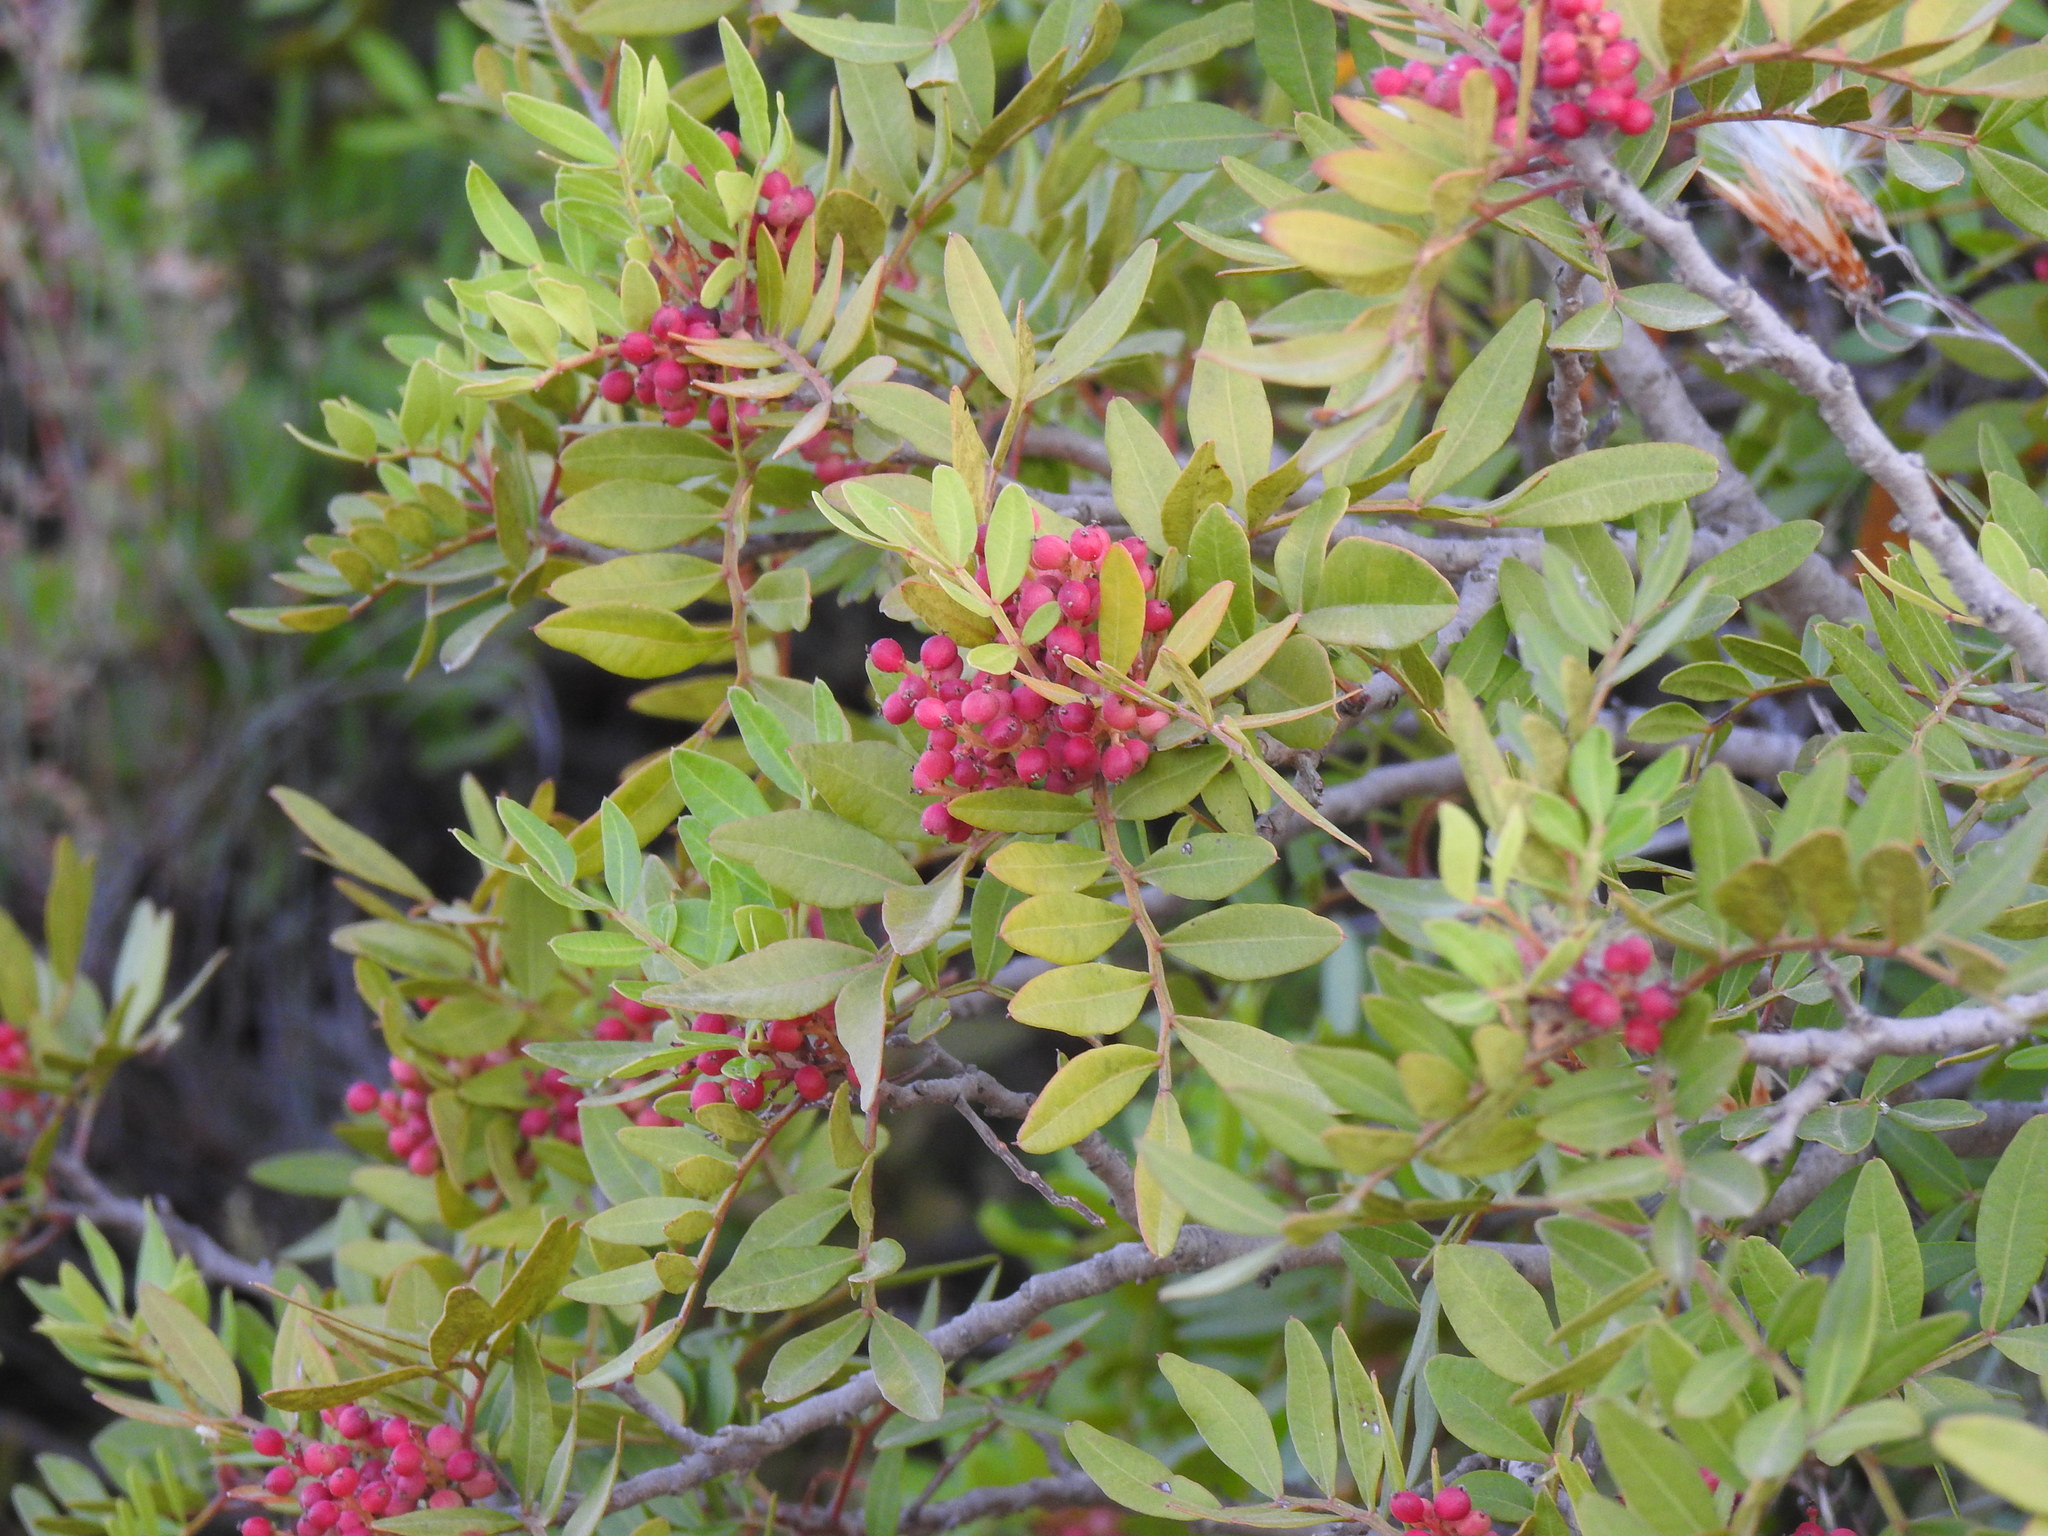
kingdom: Plantae
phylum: Tracheophyta
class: Magnoliopsida
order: Sapindales
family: Anacardiaceae
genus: Pistacia
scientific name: Pistacia lentiscus
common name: Lentisk
